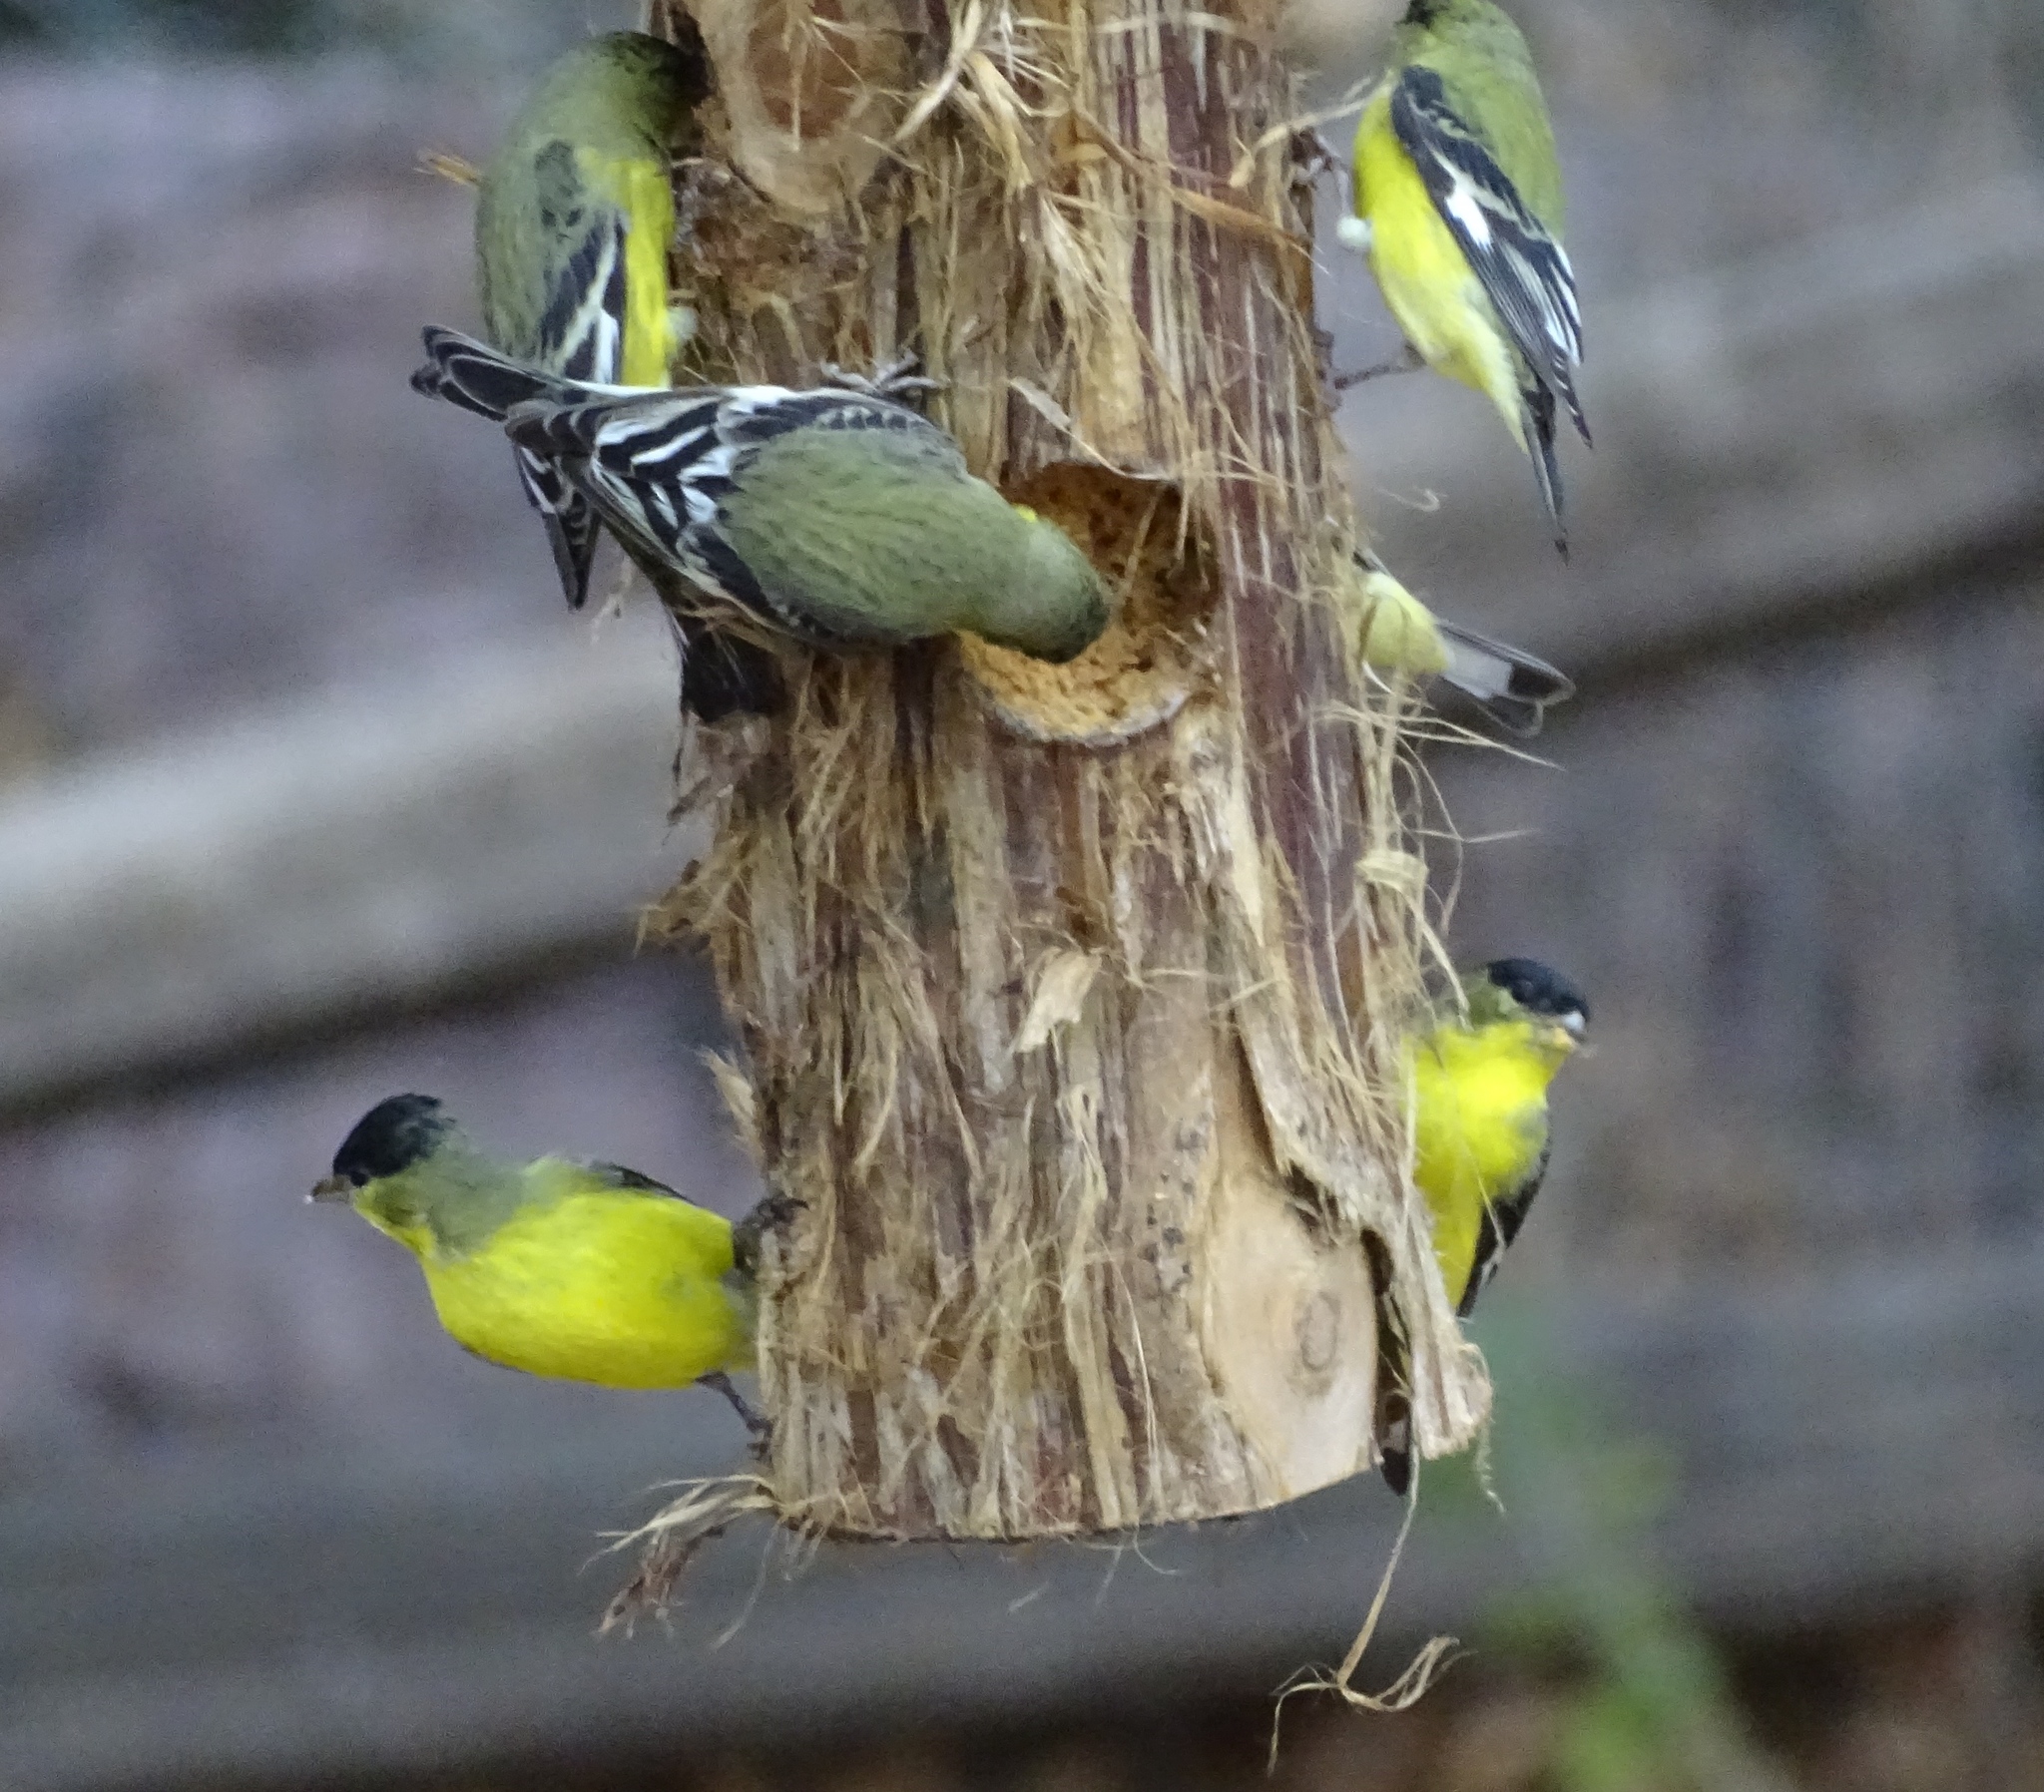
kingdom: Animalia
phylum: Chordata
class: Aves
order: Passeriformes
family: Fringillidae
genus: Spinus
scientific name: Spinus psaltria
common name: Lesser goldfinch
